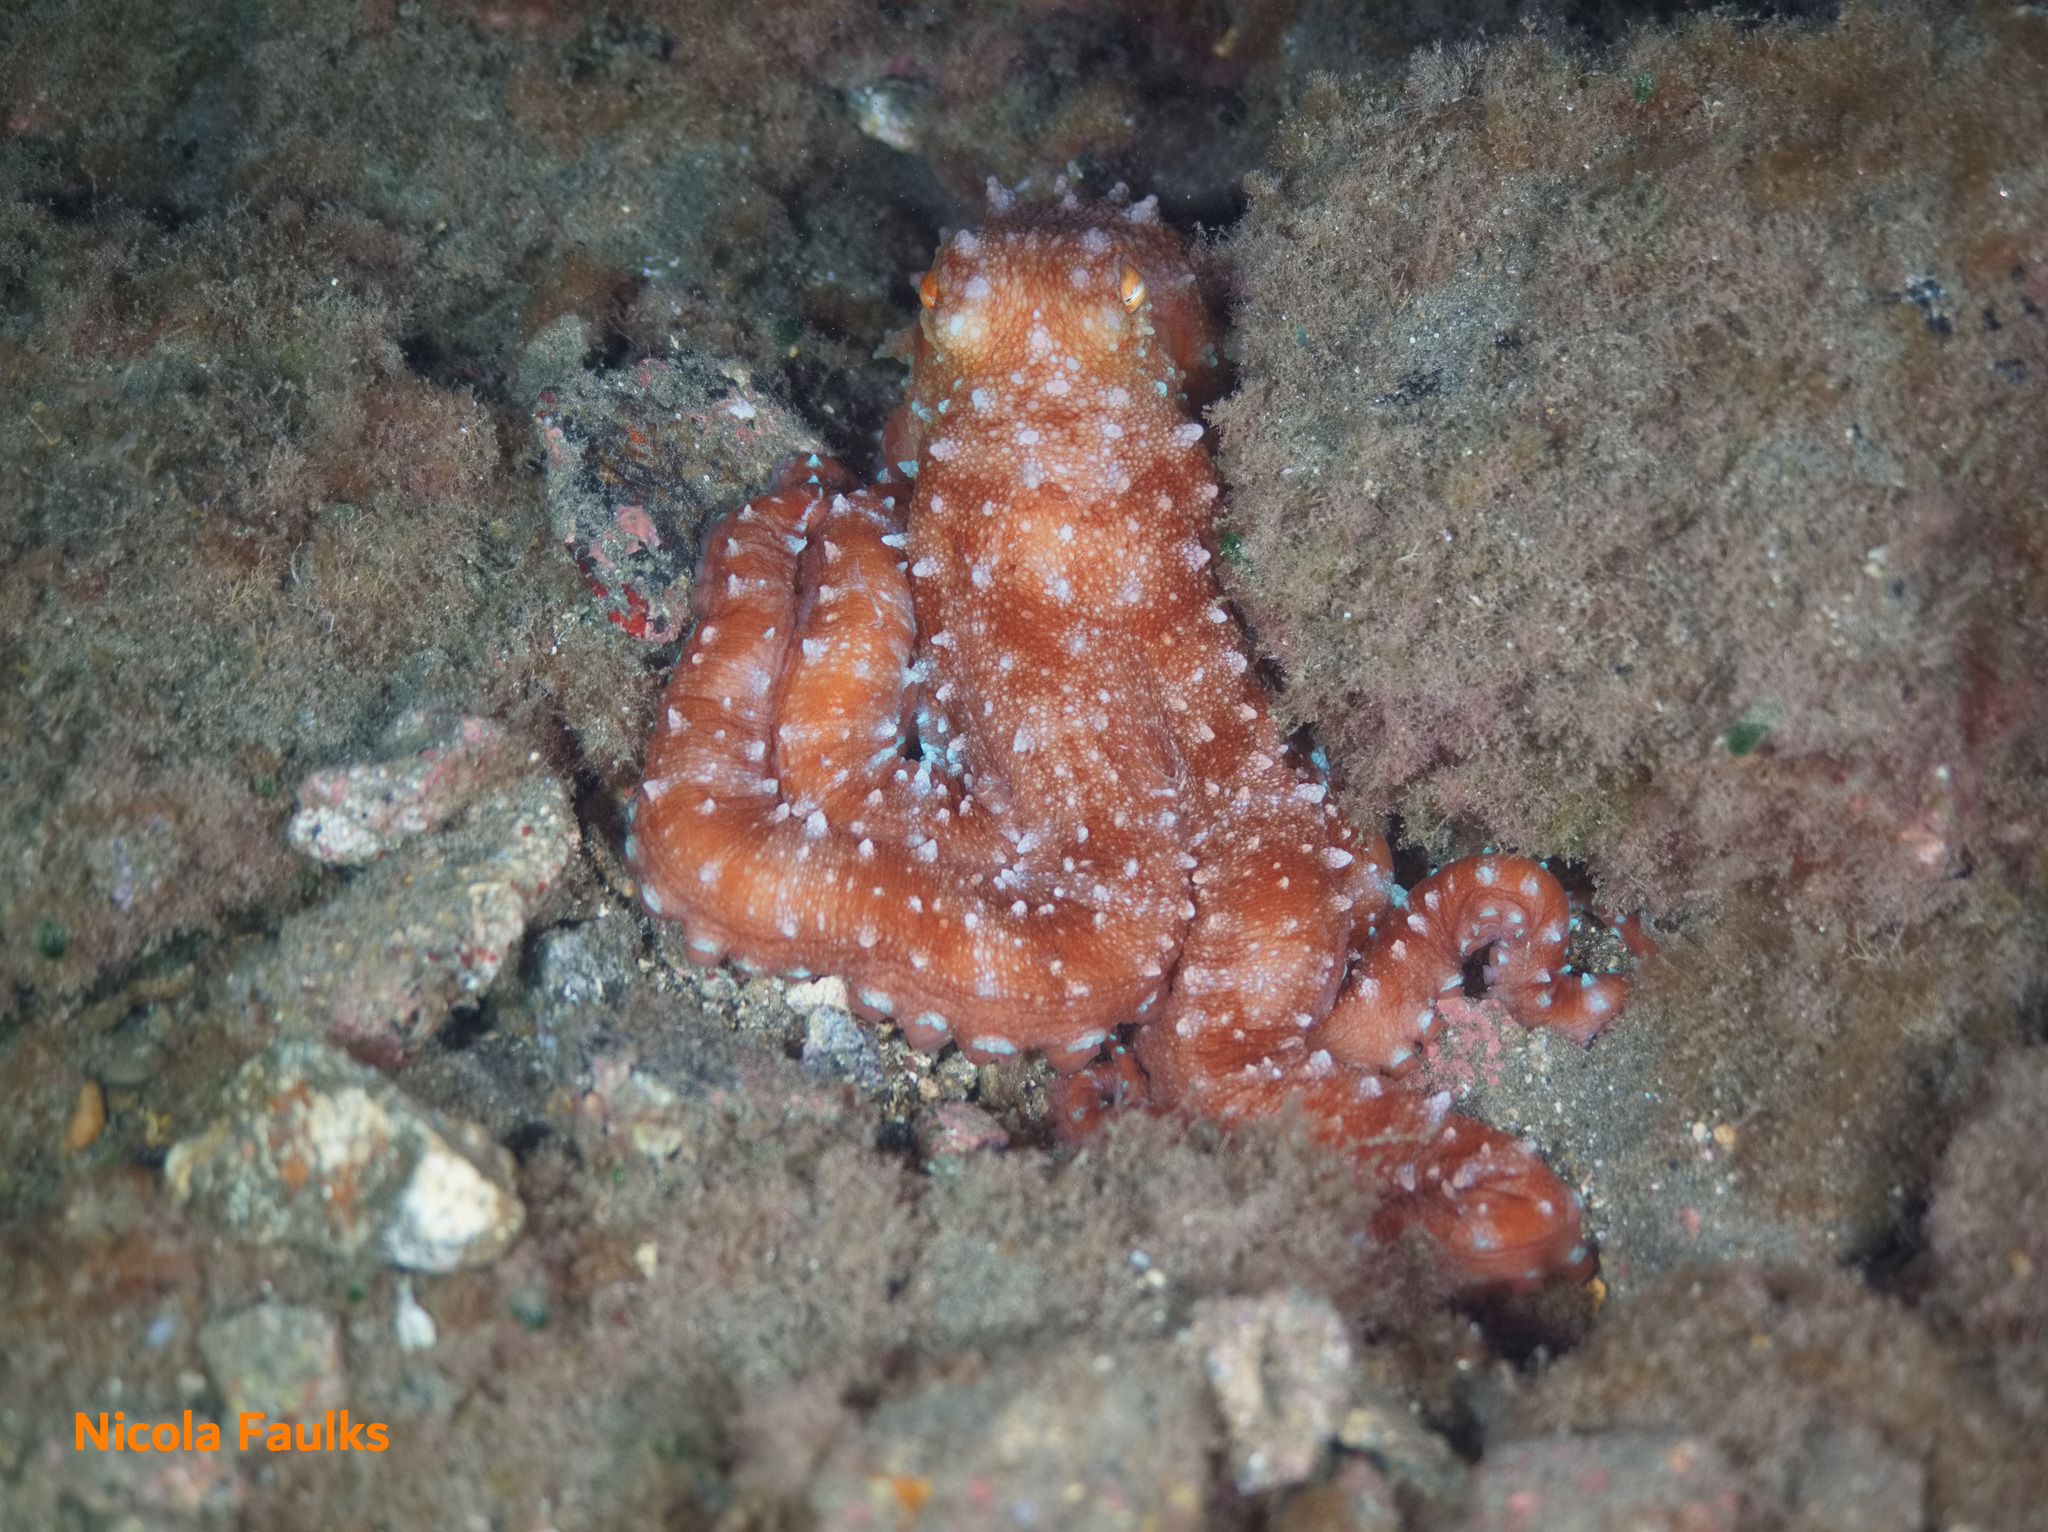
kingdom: Animalia
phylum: Mollusca
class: Cephalopoda
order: Octopoda
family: Octopodidae
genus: Callistoctopus
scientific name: Callistoctopus macropus
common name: Atlantic white-spotted octopus
